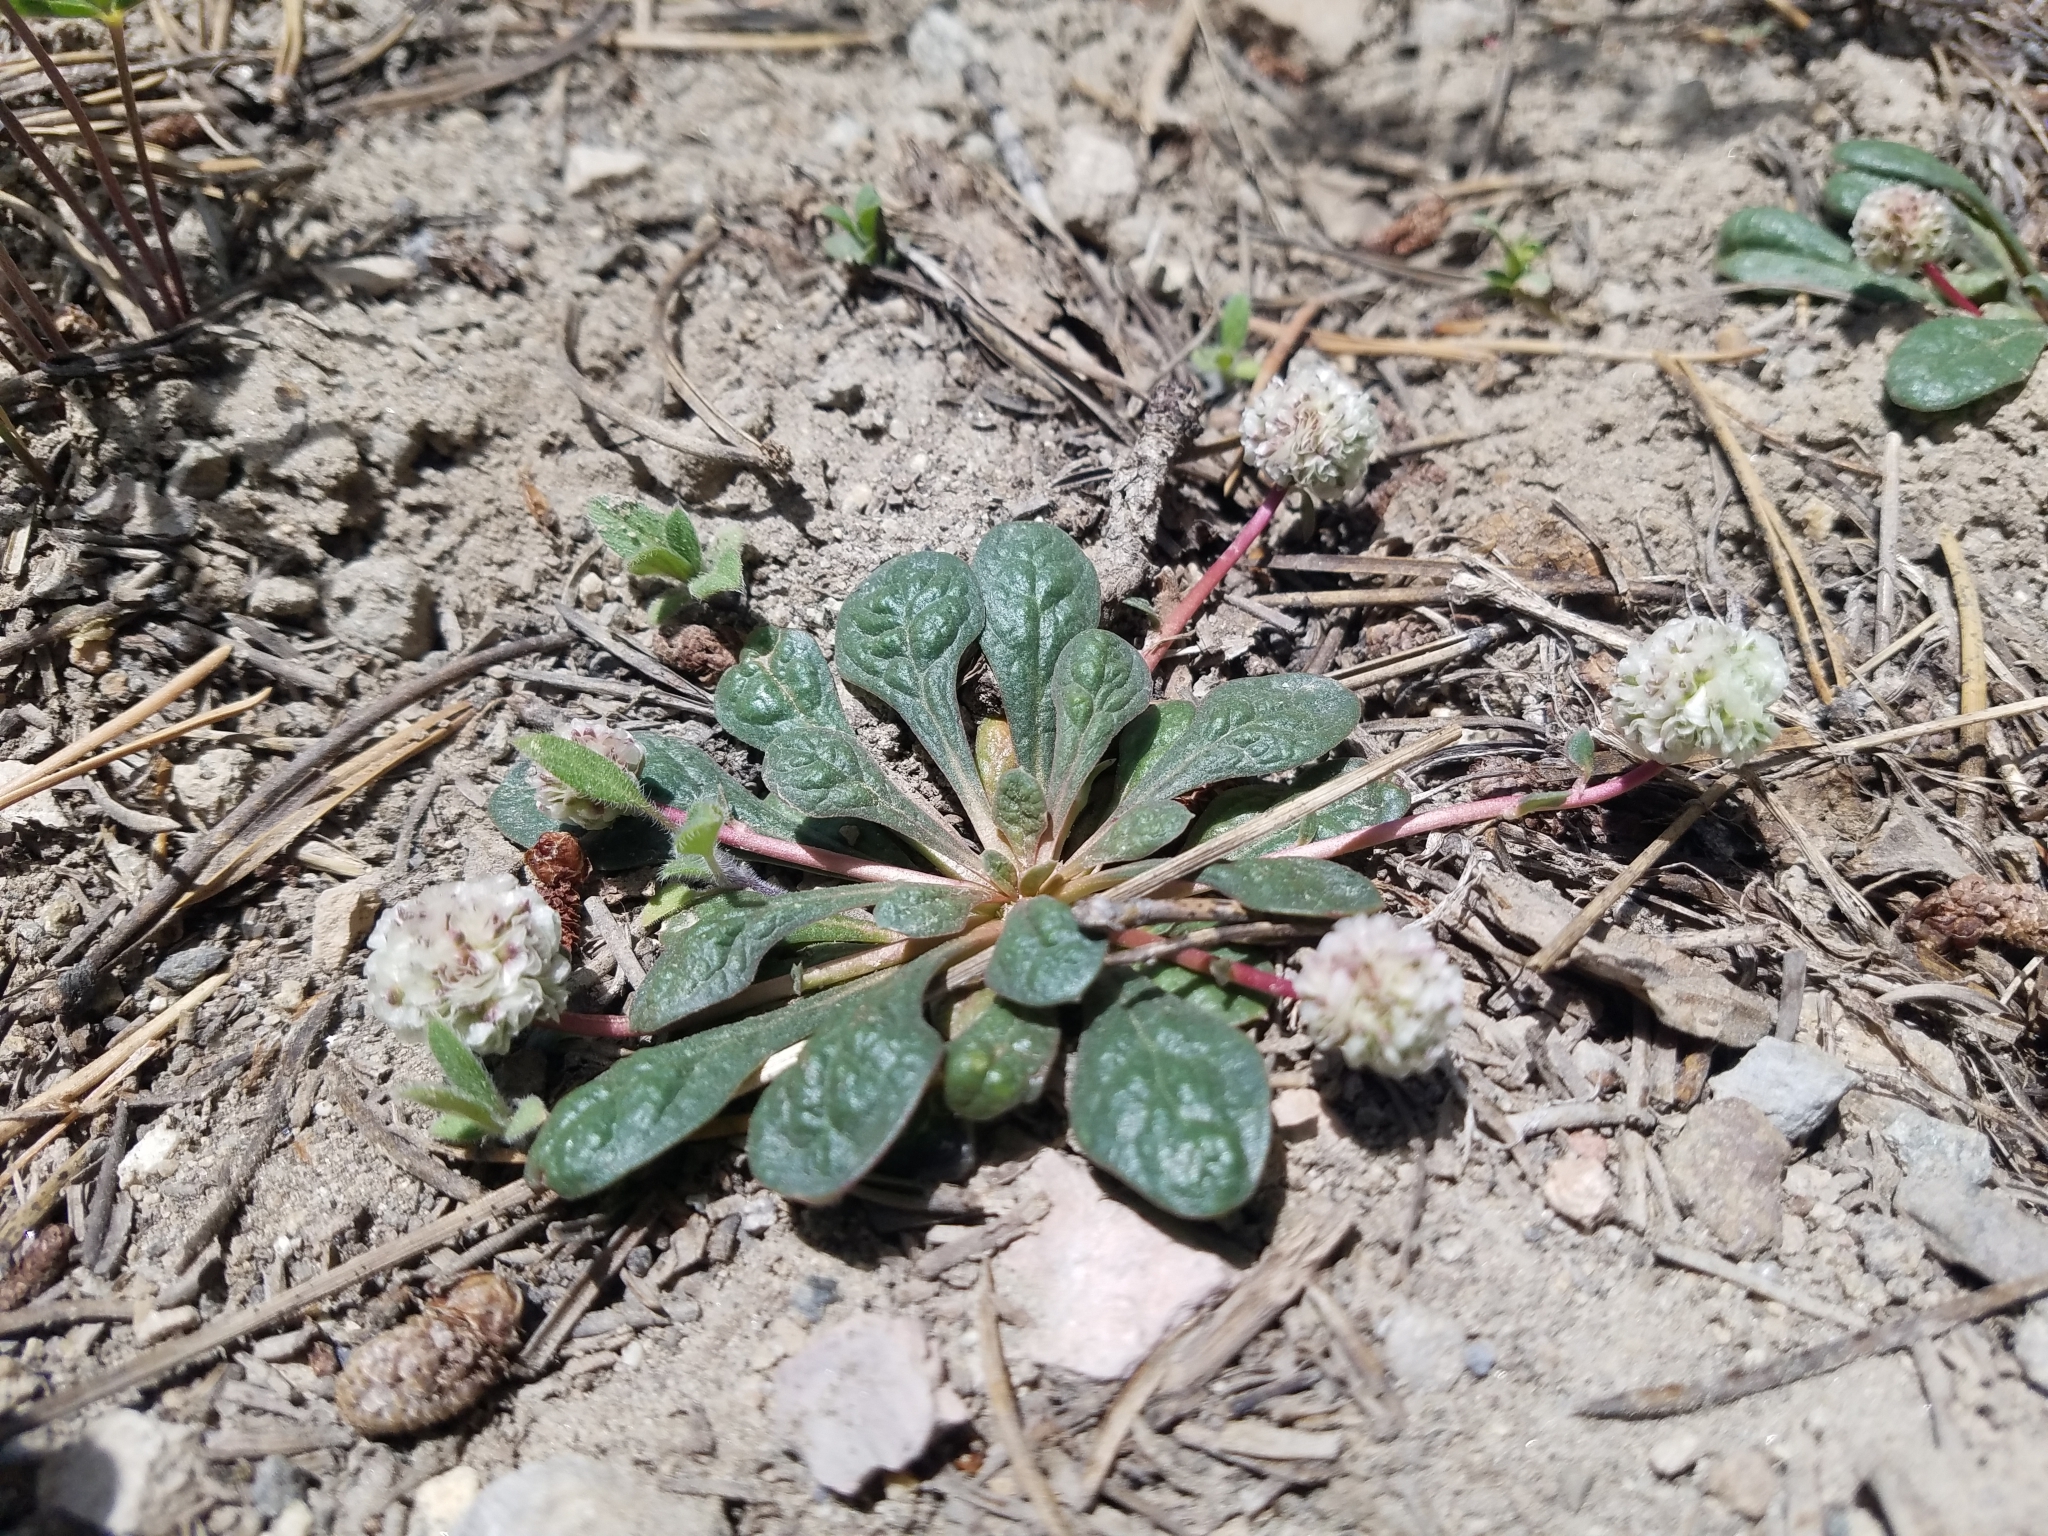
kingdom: Plantae
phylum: Tracheophyta
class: Magnoliopsida
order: Caryophyllales
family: Montiaceae
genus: Calyptridium
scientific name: Calyptridium monospermum
